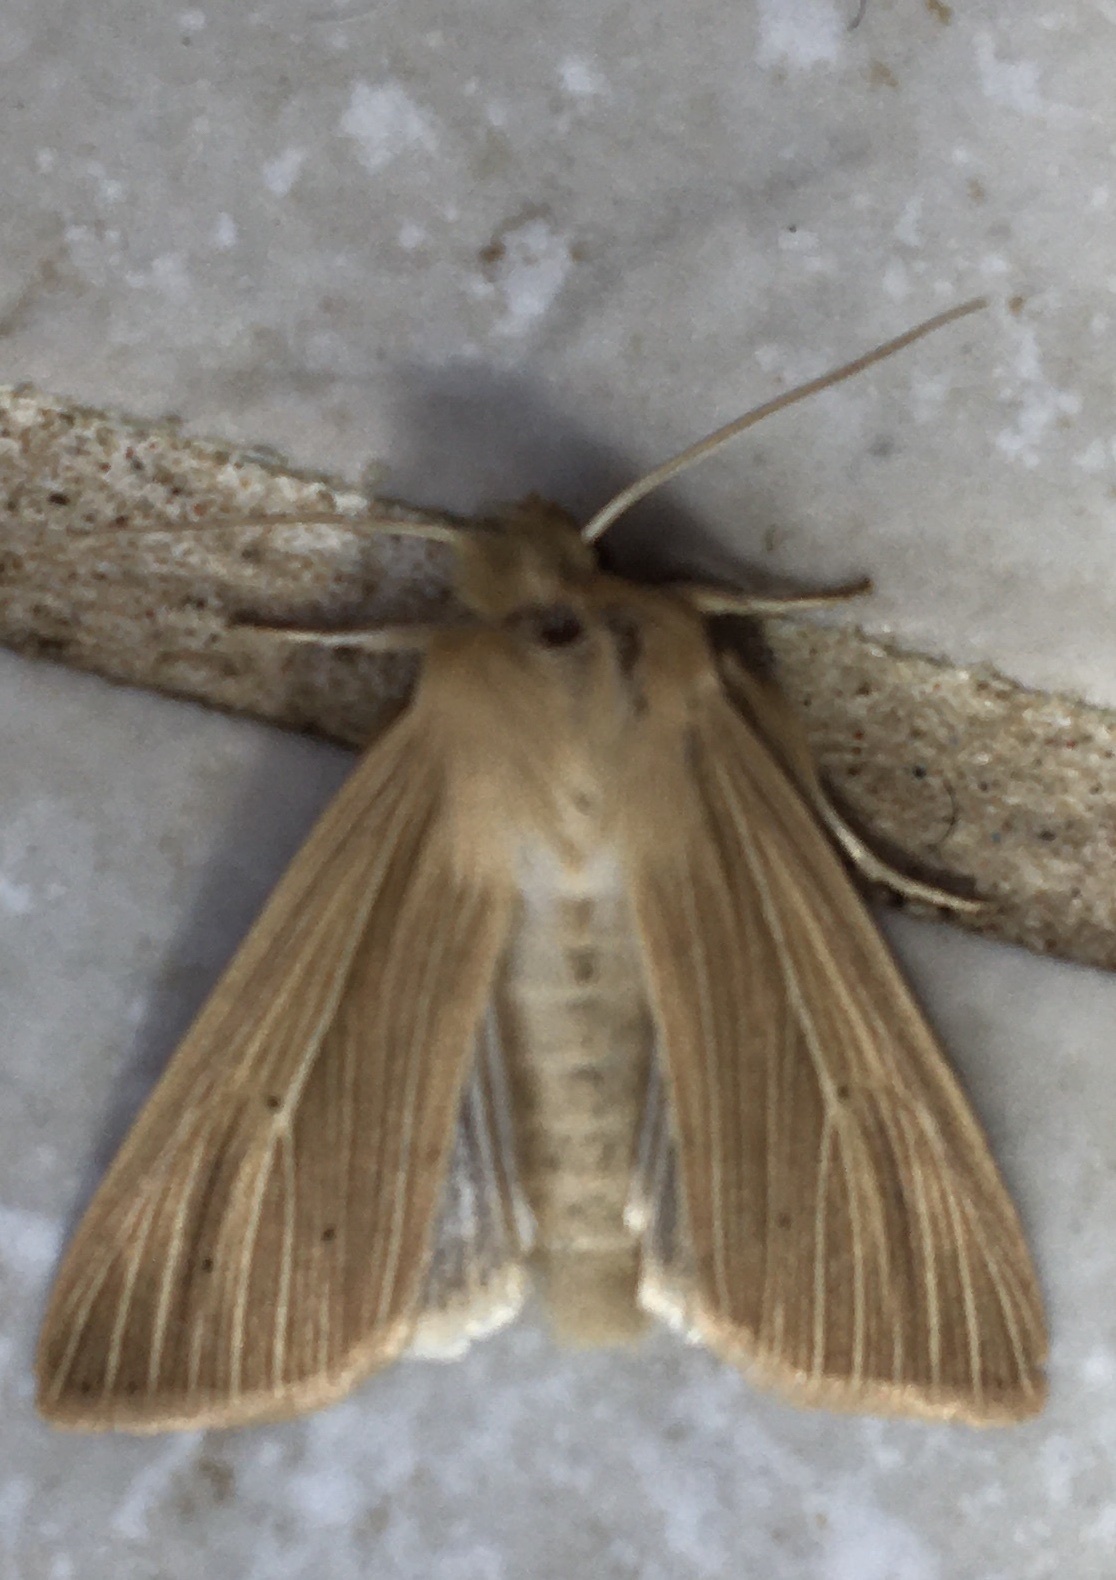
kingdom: Animalia
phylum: Arthropoda
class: Insecta
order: Lepidoptera
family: Noctuidae
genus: Mythimna
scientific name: Mythimna impura
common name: Smoky wainscot
